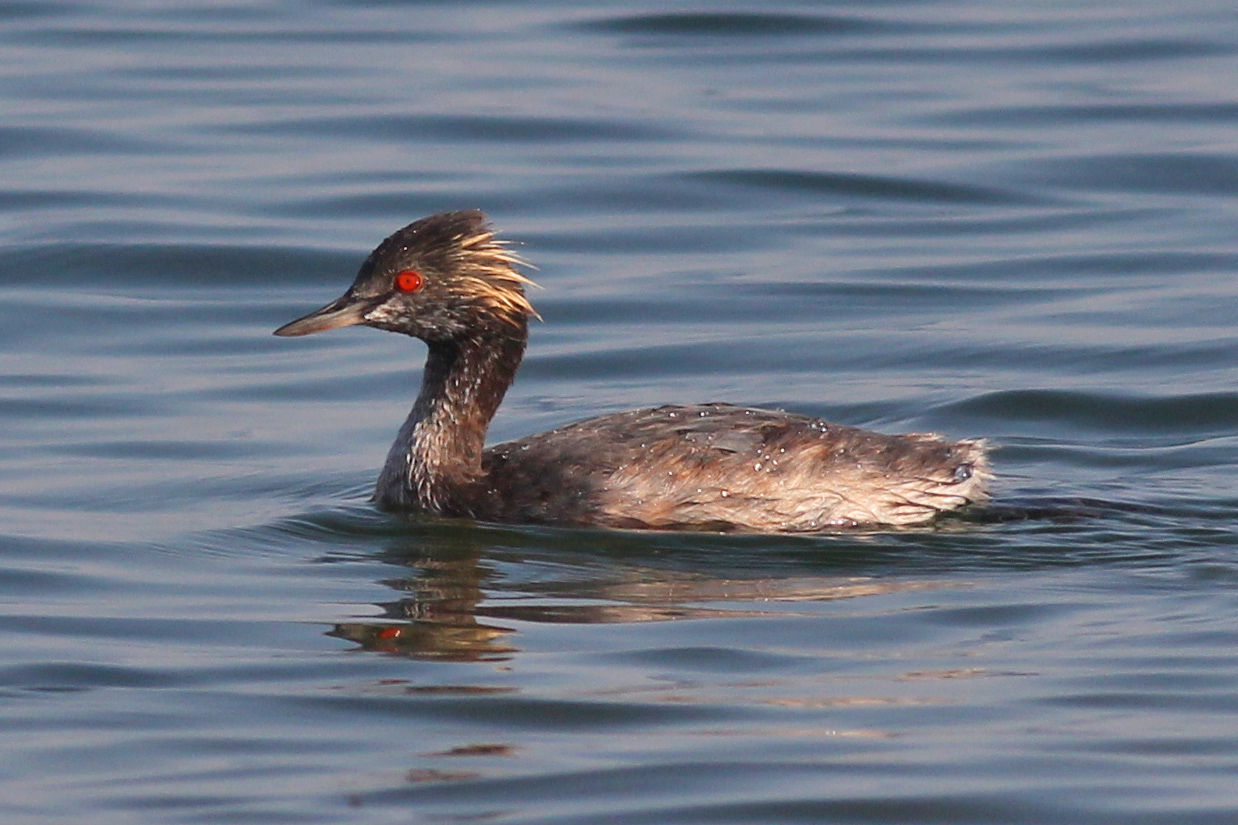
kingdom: Animalia
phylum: Chordata
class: Aves
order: Podicipediformes
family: Podicipedidae
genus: Podiceps
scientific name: Podiceps nigricollis
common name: Black-necked grebe
